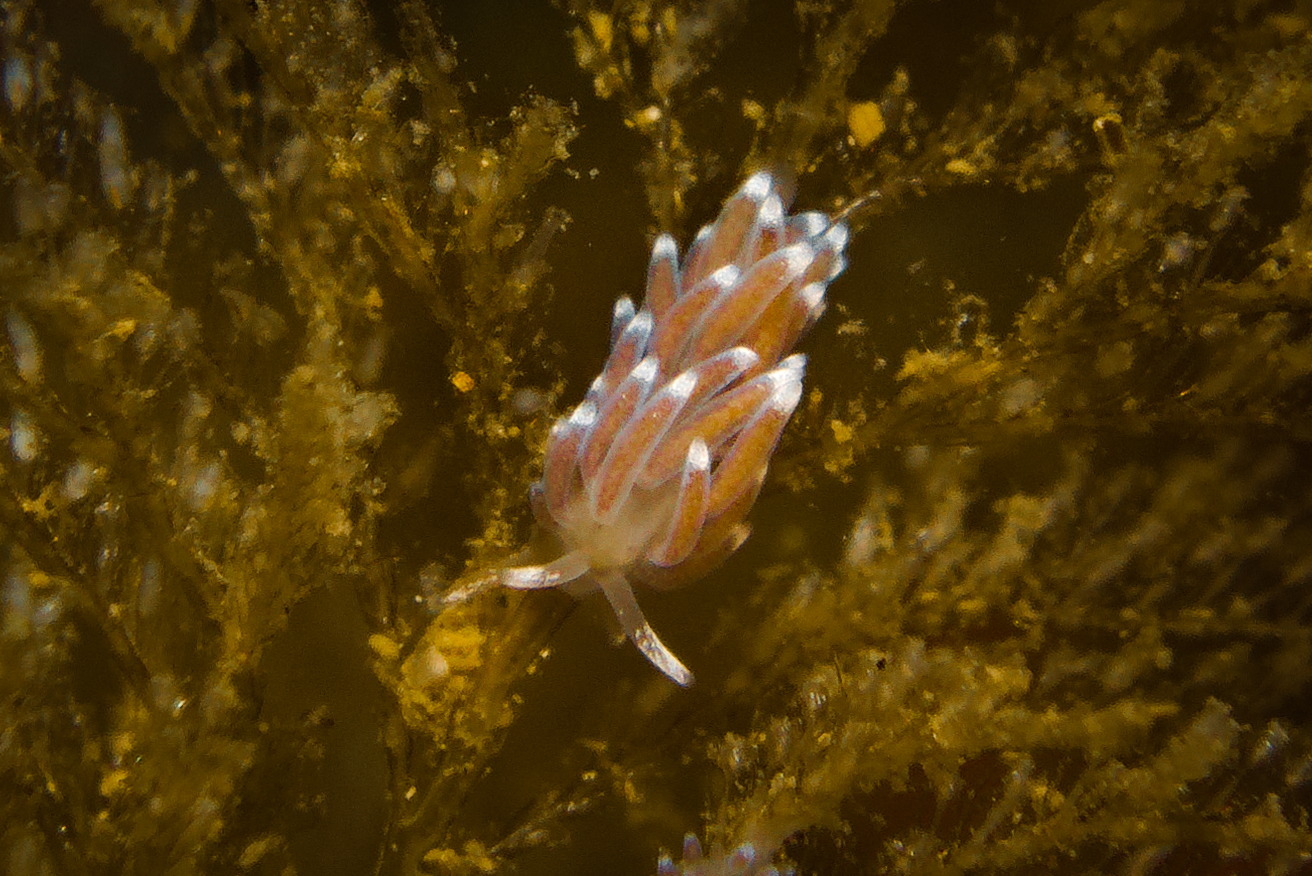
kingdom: Animalia
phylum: Mollusca
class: Gastropoda
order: Nudibranchia
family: Cuthonellidae
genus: Cuthonella
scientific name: Cuthonella concinna
